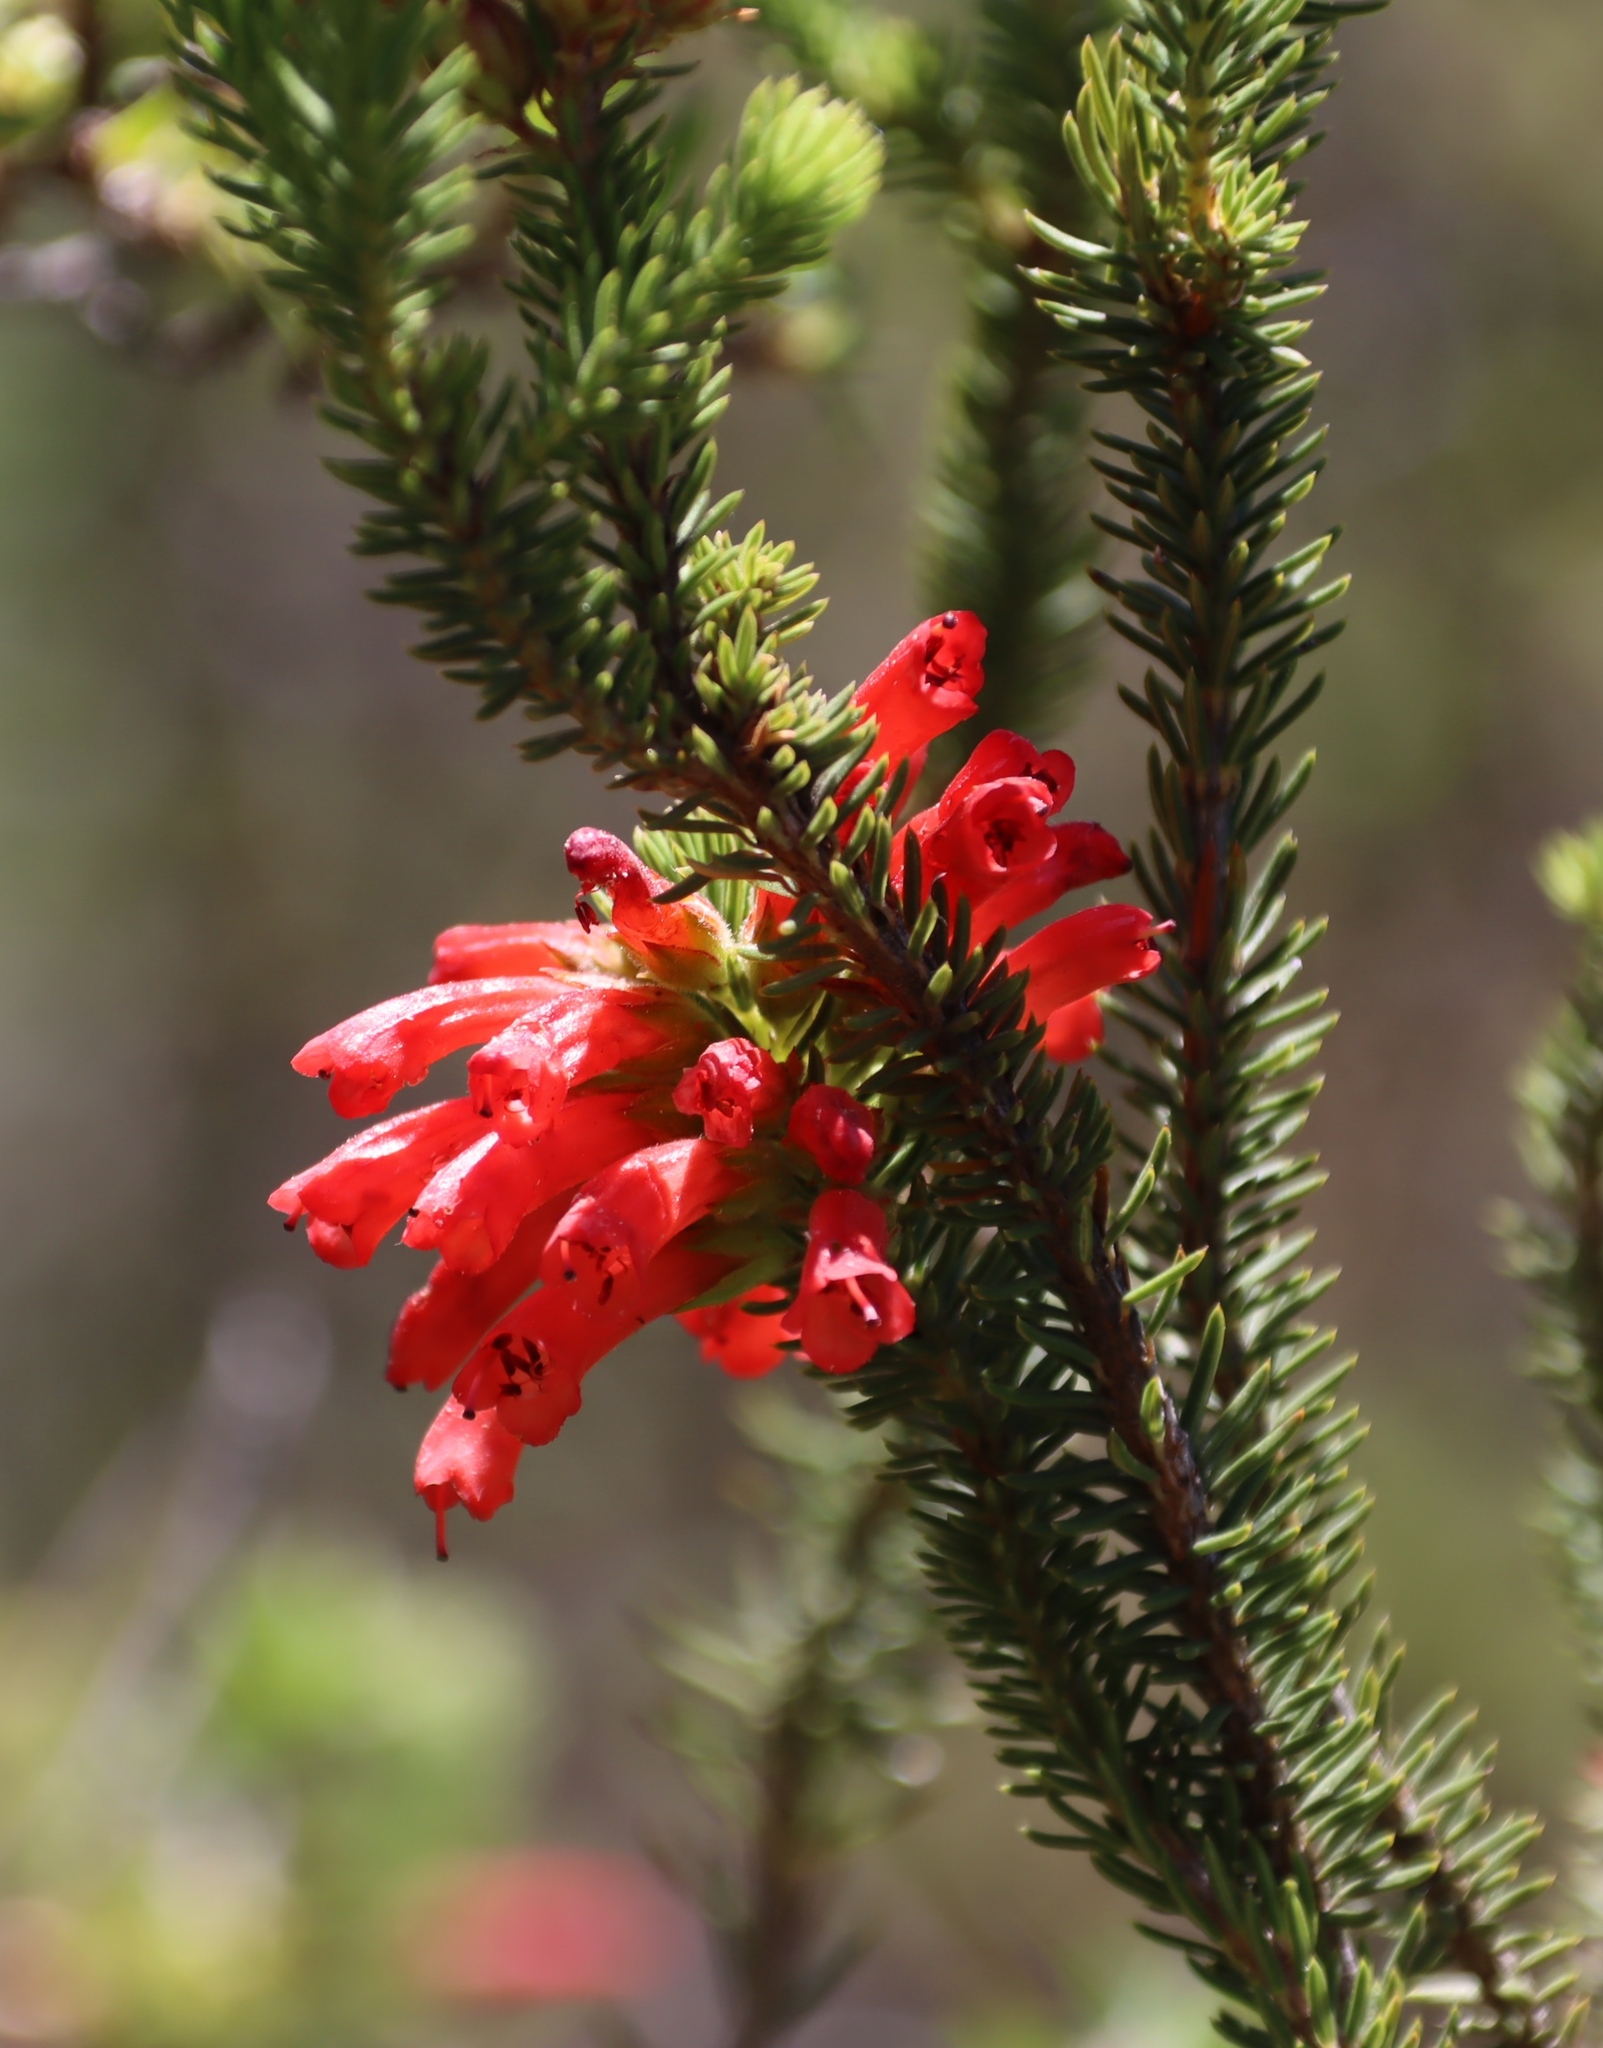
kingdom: Plantae
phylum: Tracheophyta
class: Magnoliopsida
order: Ericales
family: Ericaceae
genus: Erica
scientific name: Erica abietina
